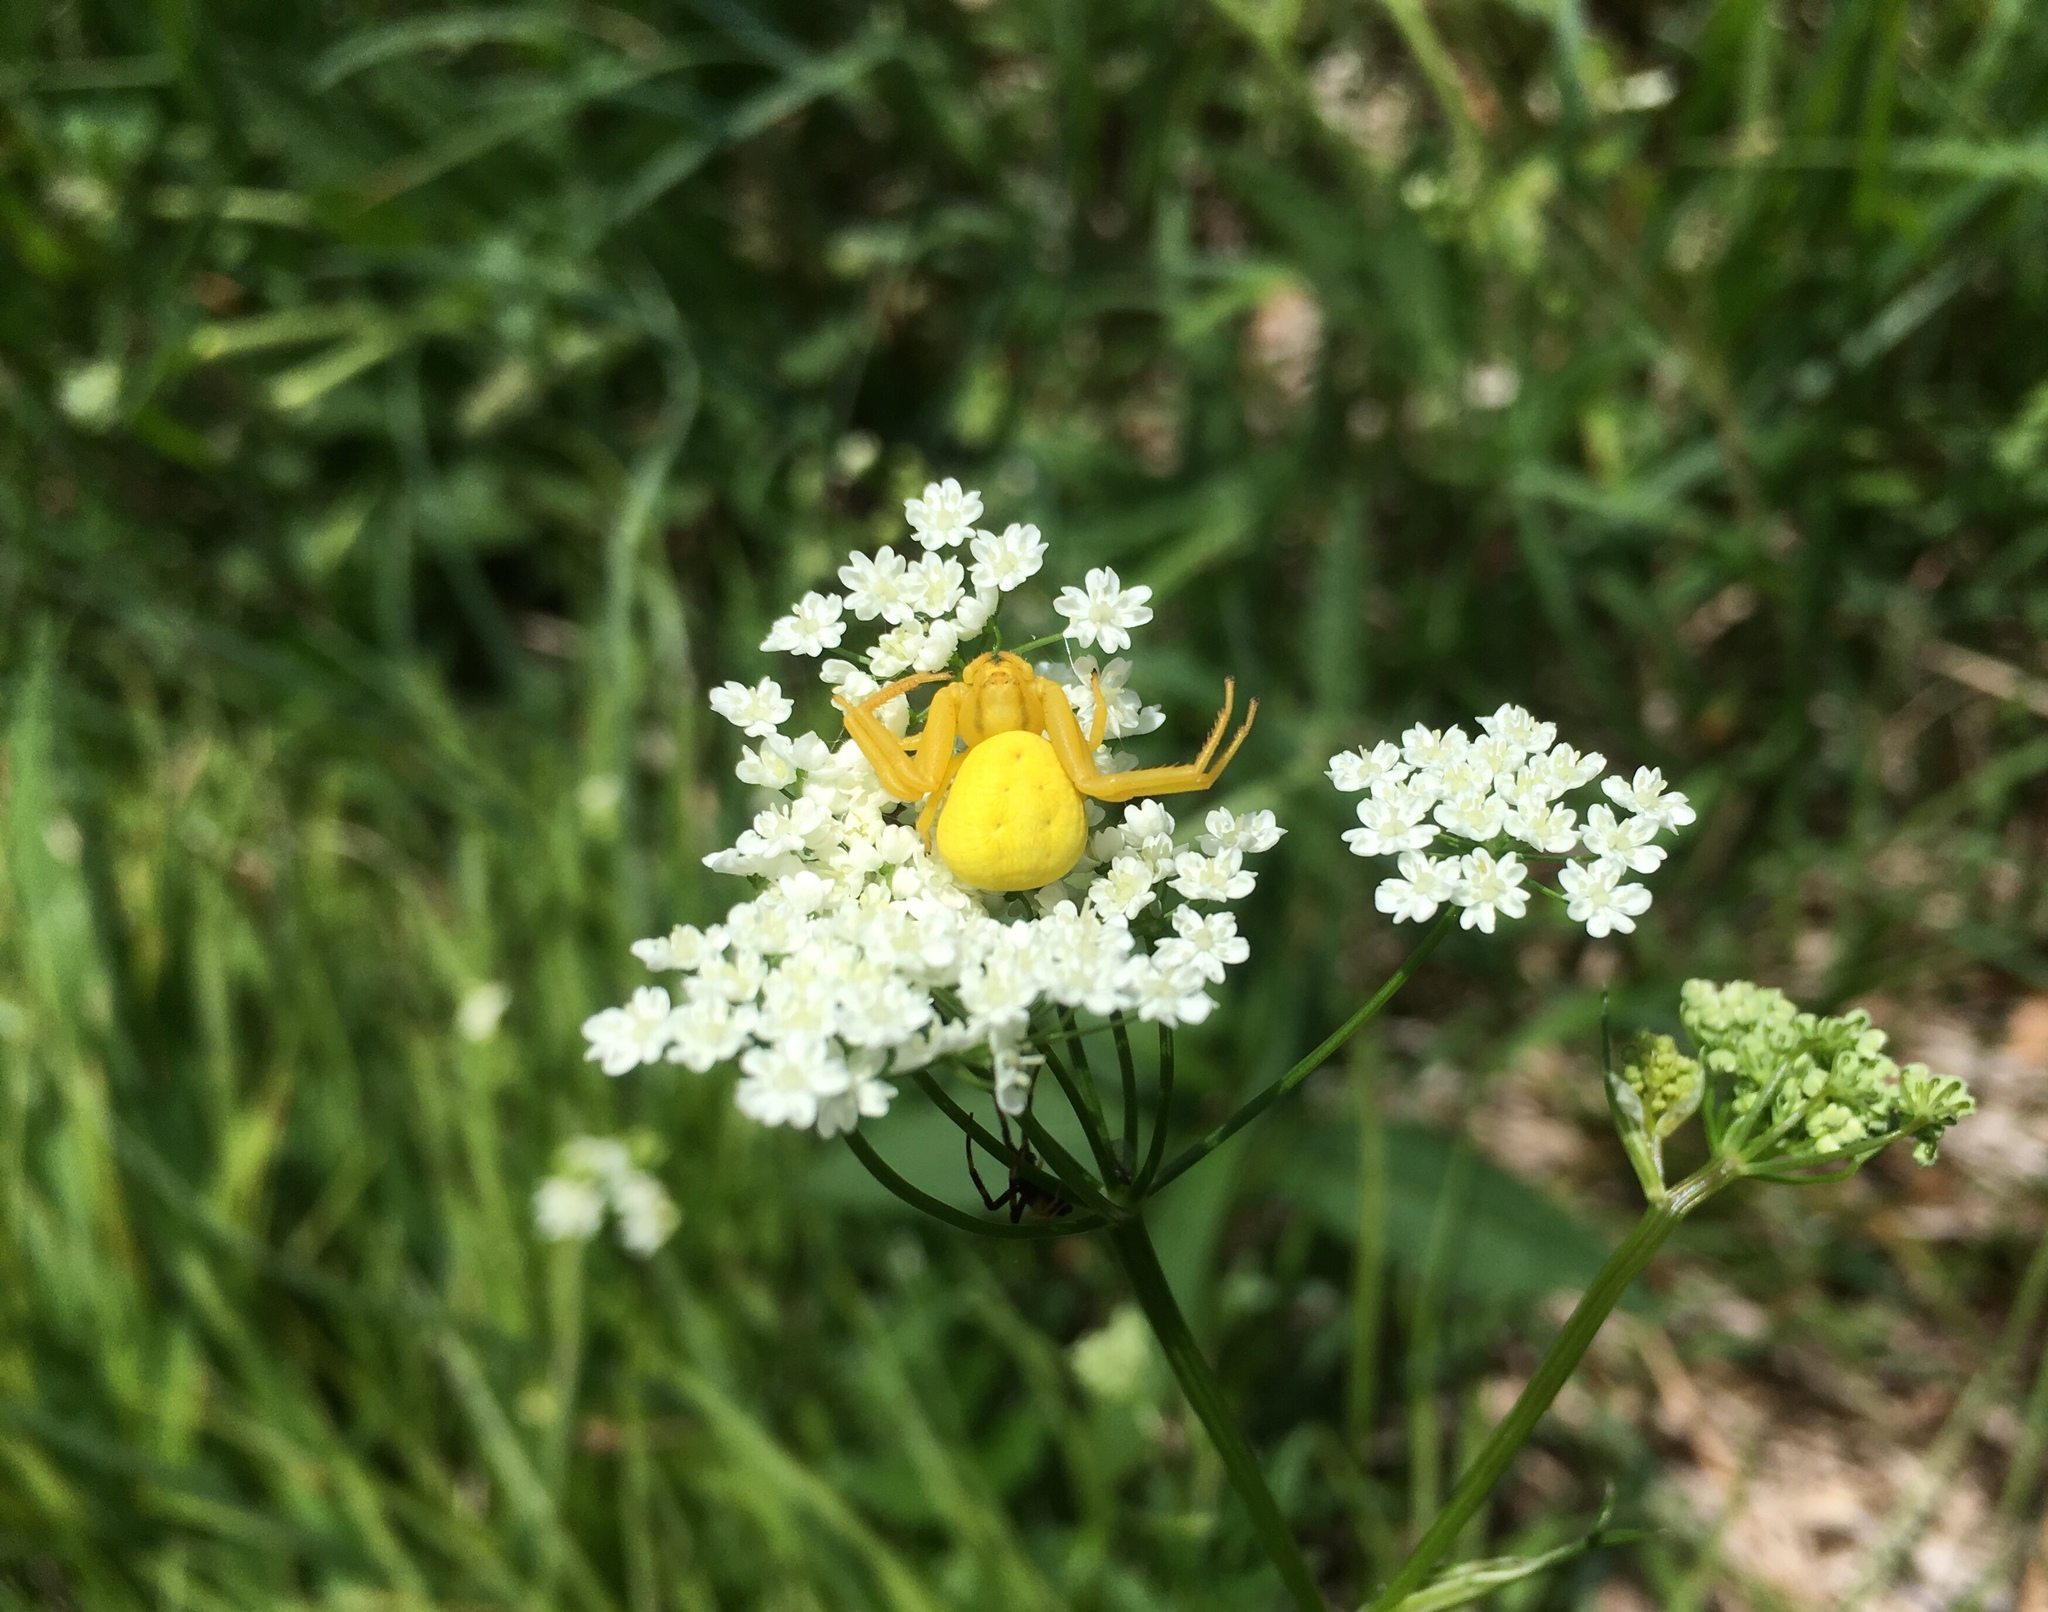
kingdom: Animalia
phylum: Arthropoda
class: Arachnida
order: Araneae
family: Thomisidae
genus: Misumena
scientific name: Misumena vatia
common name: Goldenrod crab spider
